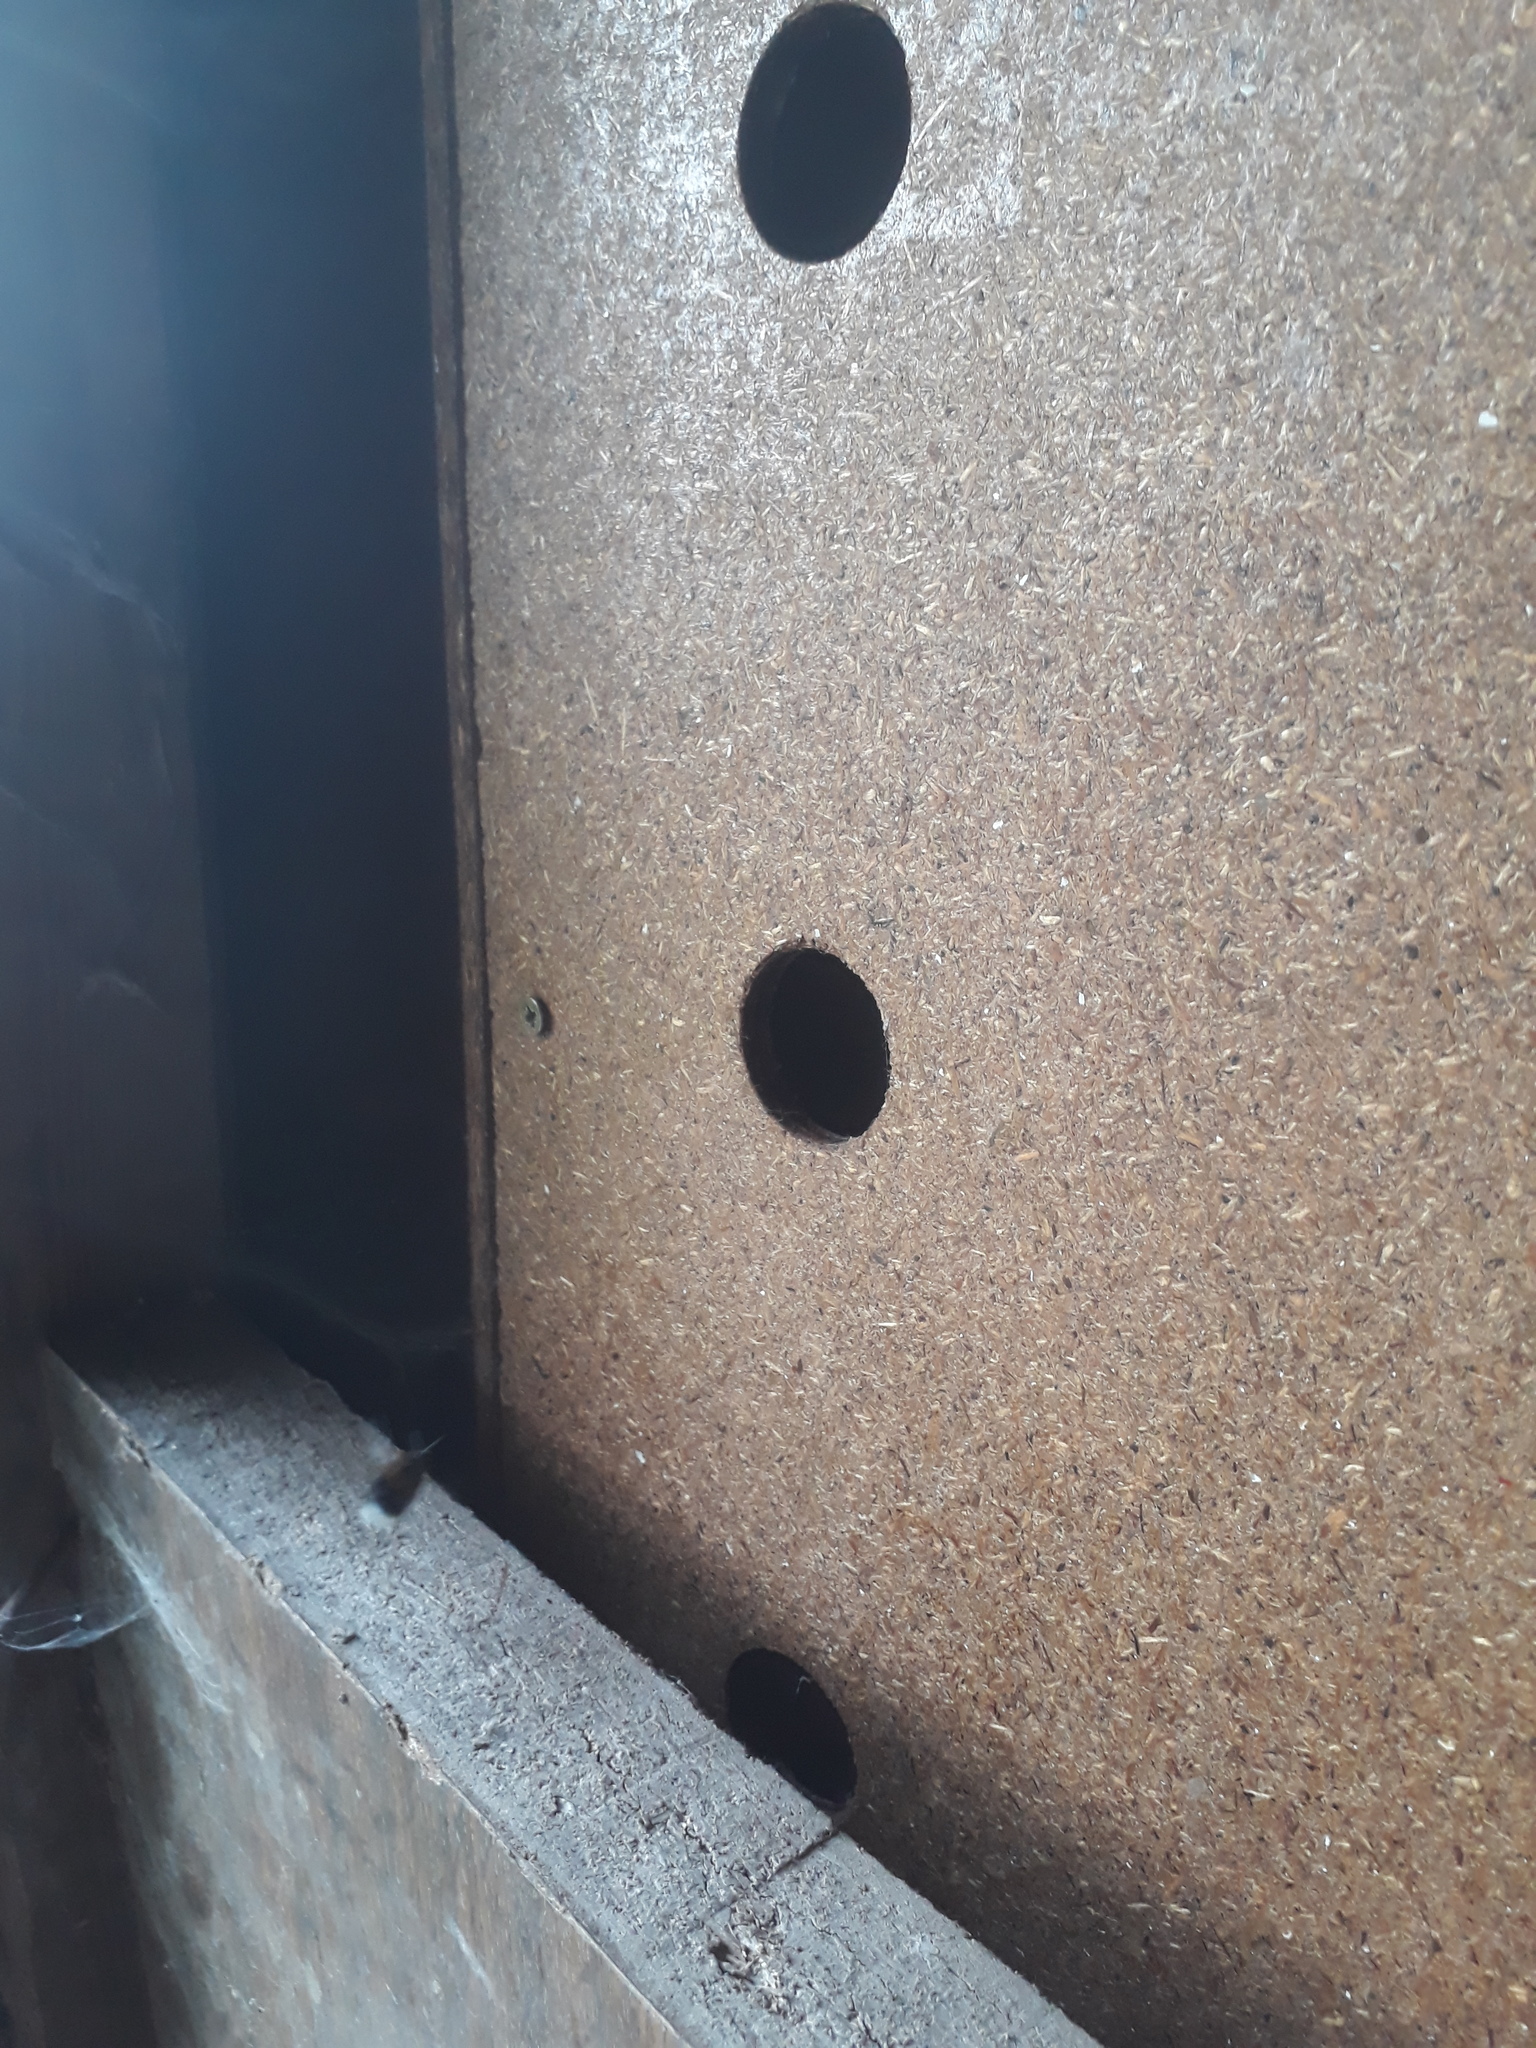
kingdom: Animalia
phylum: Arthropoda
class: Insecta
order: Hymenoptera
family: Apidae
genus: Bombus
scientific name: Bombus hypnorum
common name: New garden bumblebee
